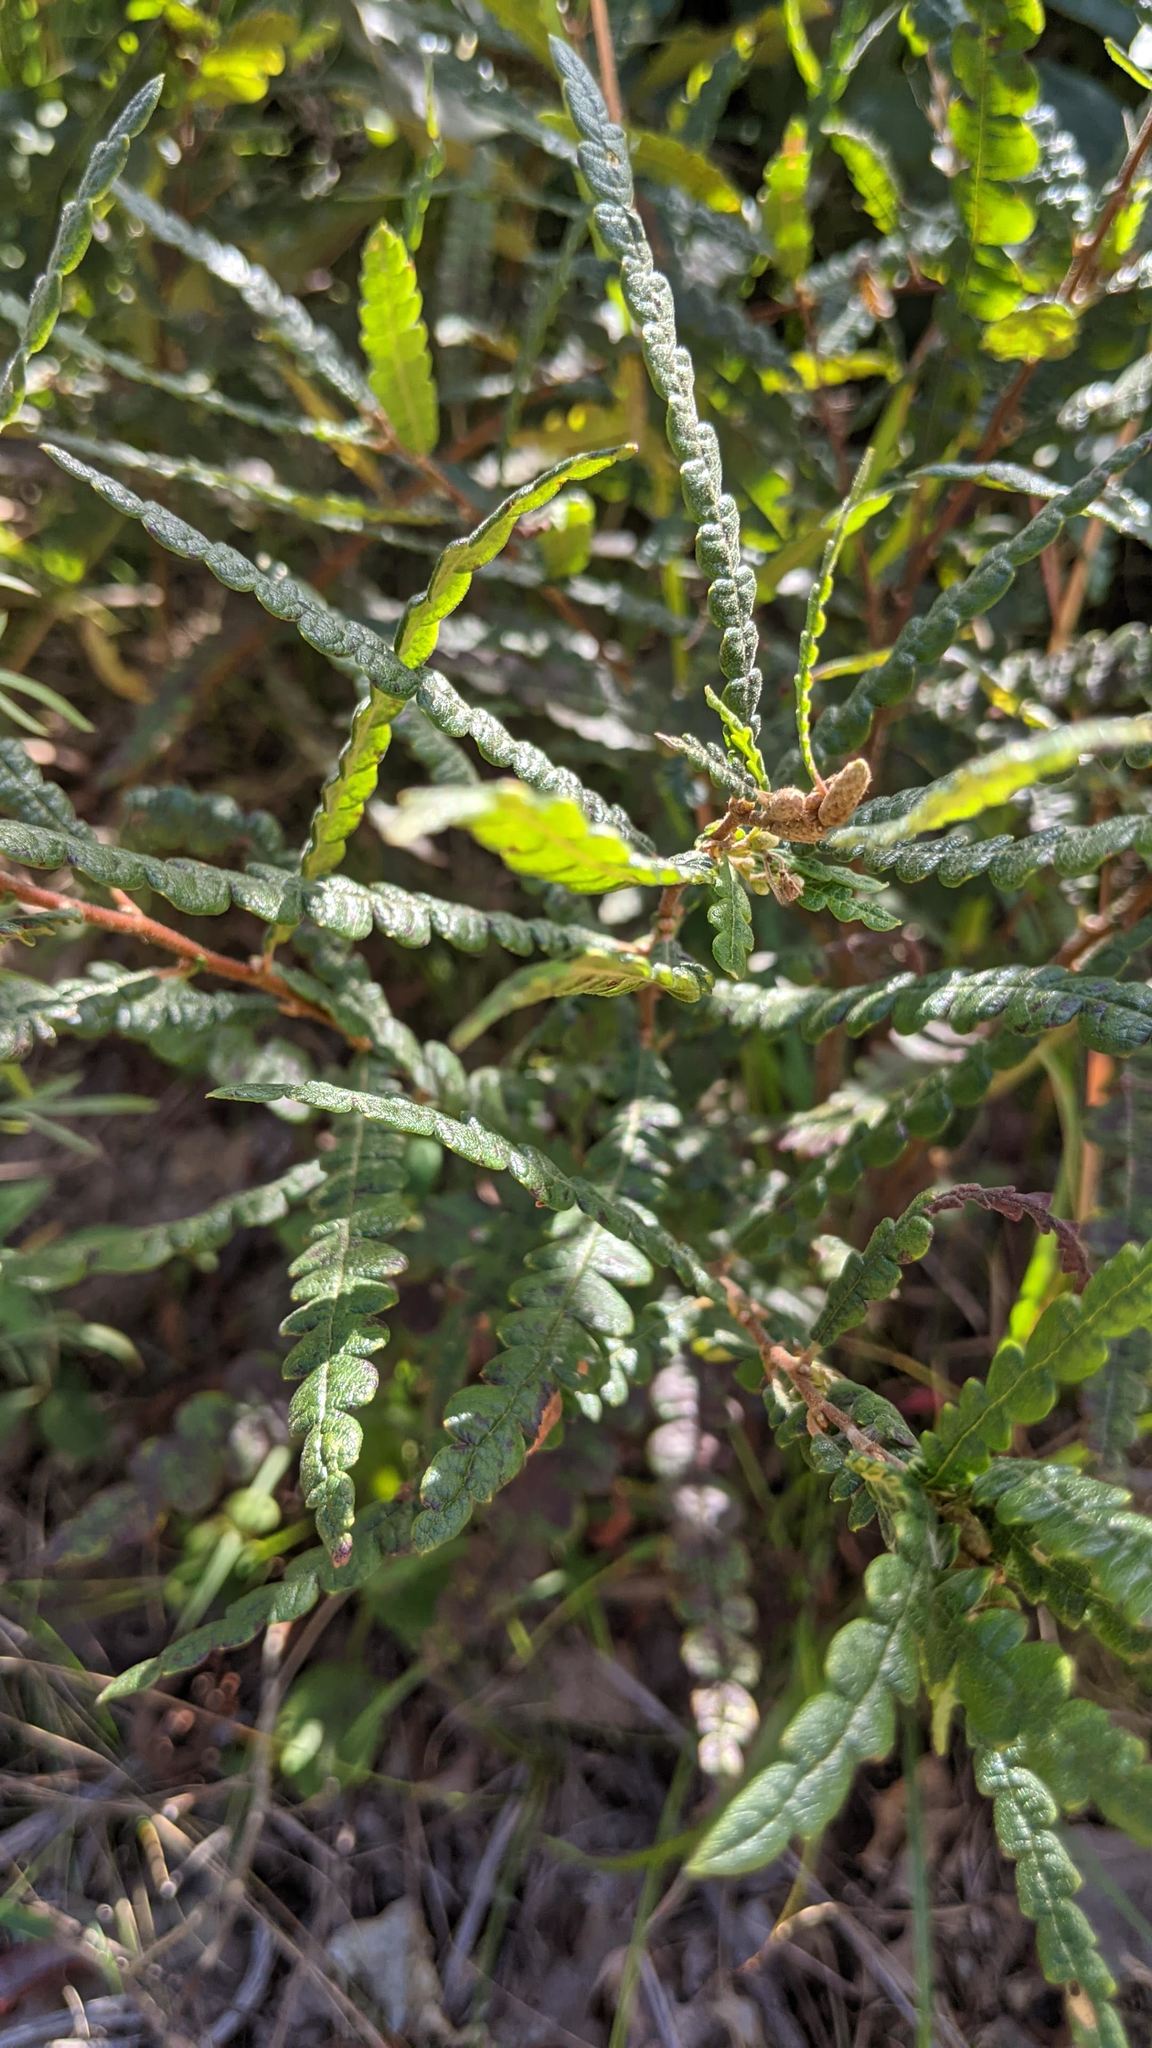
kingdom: Plantae
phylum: Tracheophyta
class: Magnoliopsida
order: Fagales
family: Myricaceae
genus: Comptonia
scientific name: Comptonia peregrina
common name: Sweet-fern
